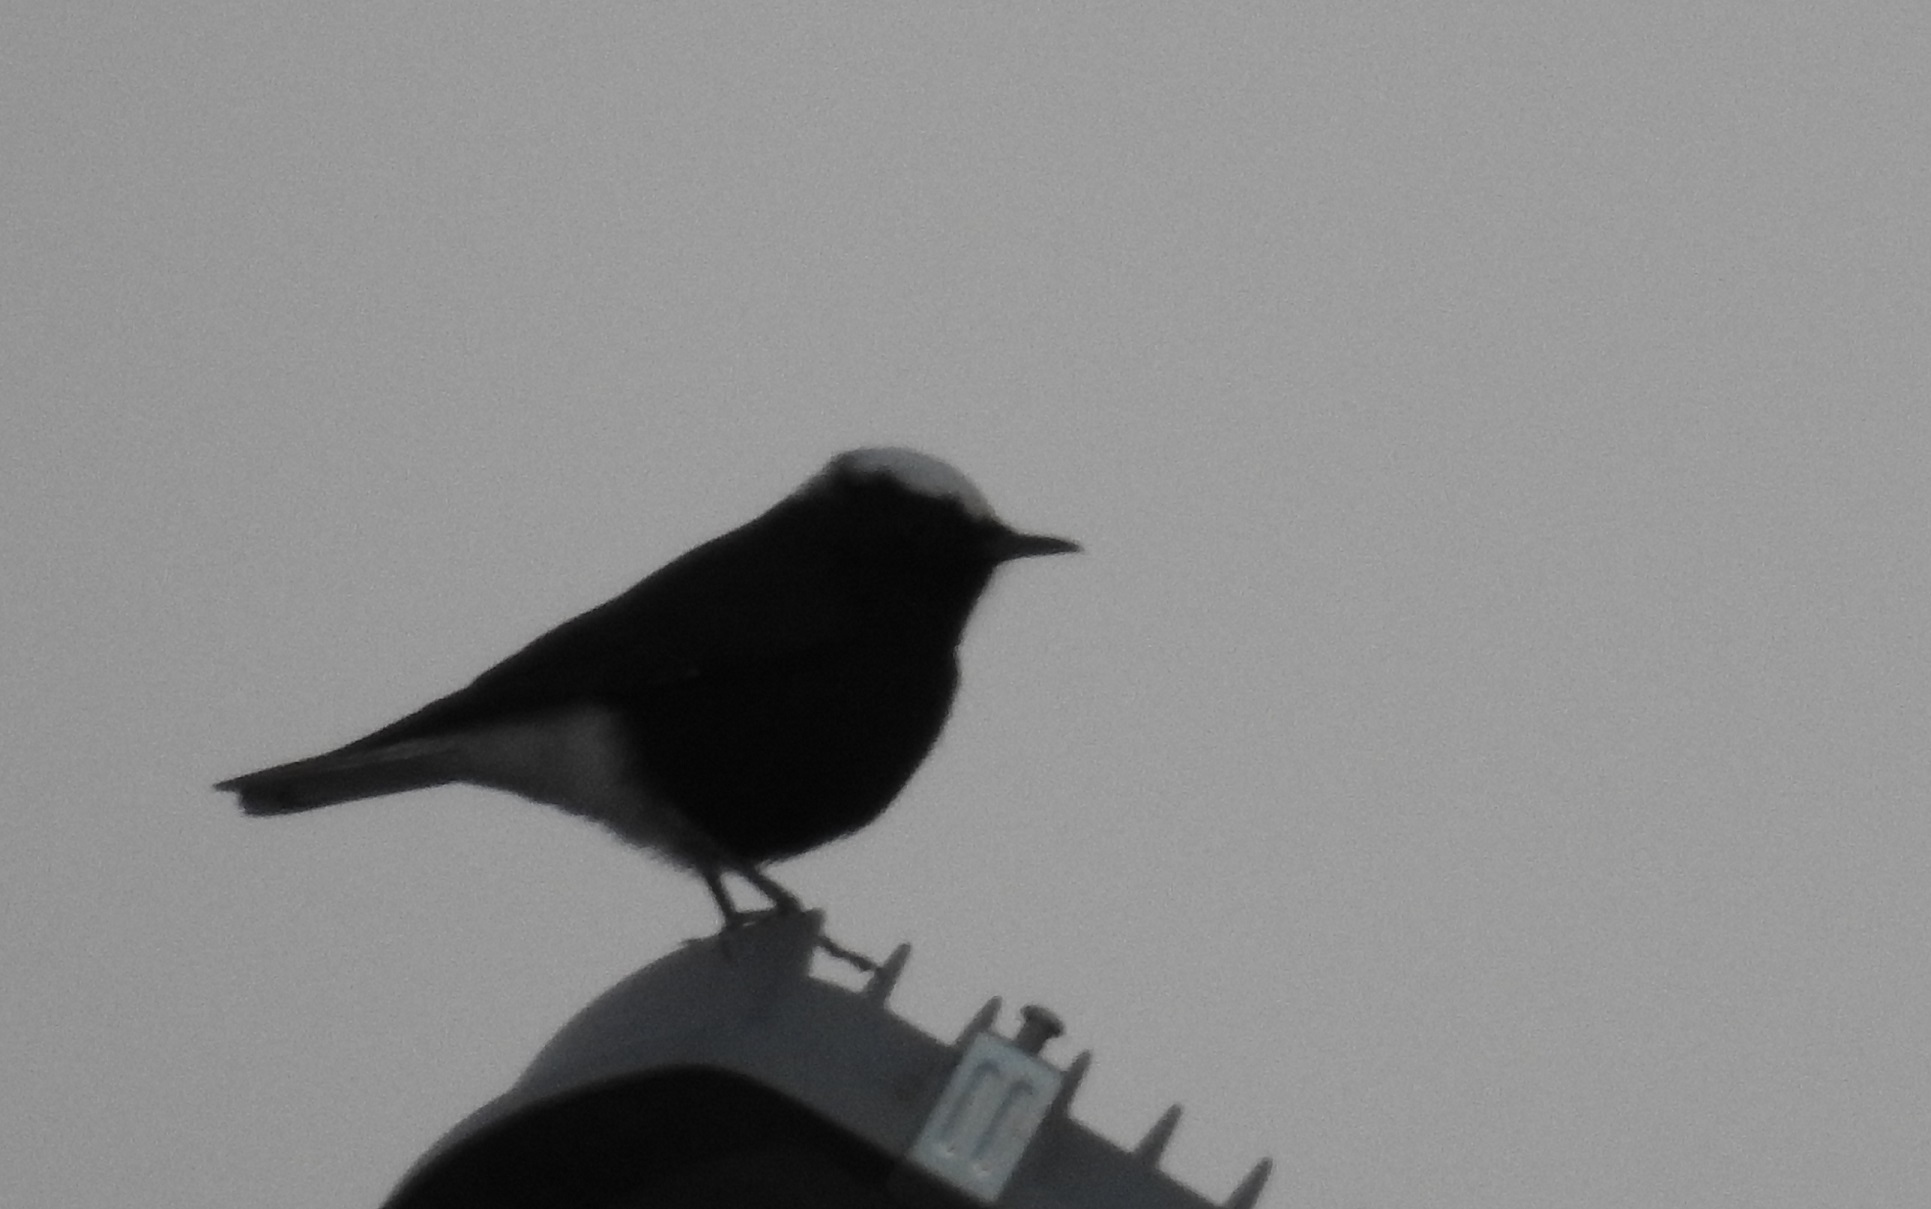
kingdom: Animalia
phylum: Chordata
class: Aves
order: Passeriformes
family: Muscicapidae
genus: Oenanthe
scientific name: Oenanthe leucopyga
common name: White-crowned wheatear
